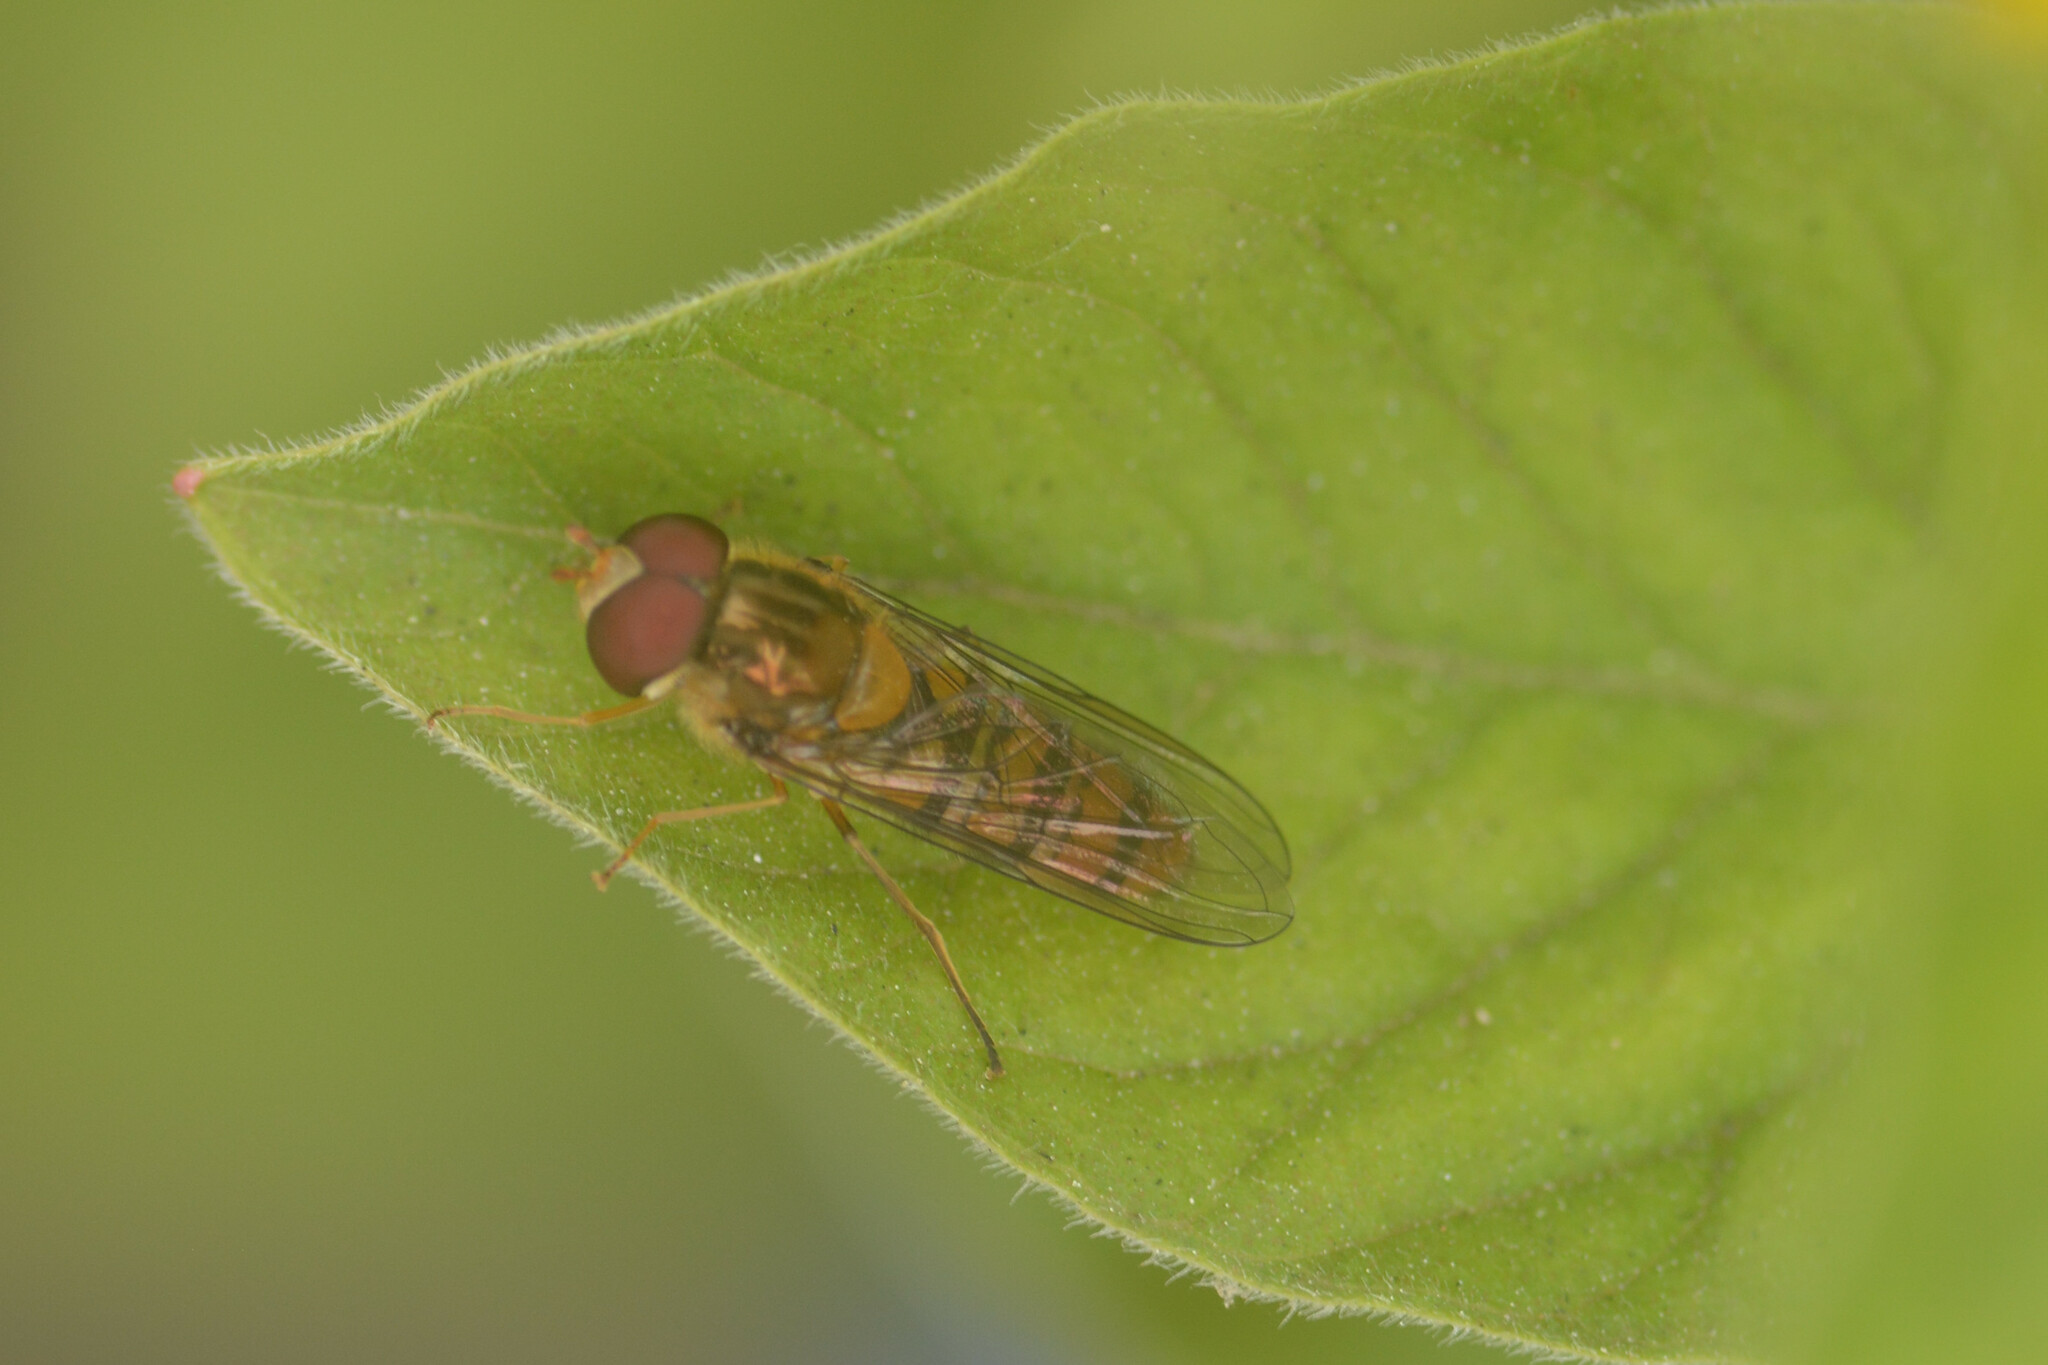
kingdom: Animalia
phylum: Arthropoda
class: Insecta
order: Diptera
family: Syrphidae
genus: Episyrphus
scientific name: Episyrphus balteatus
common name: Marmalade hoverfly
